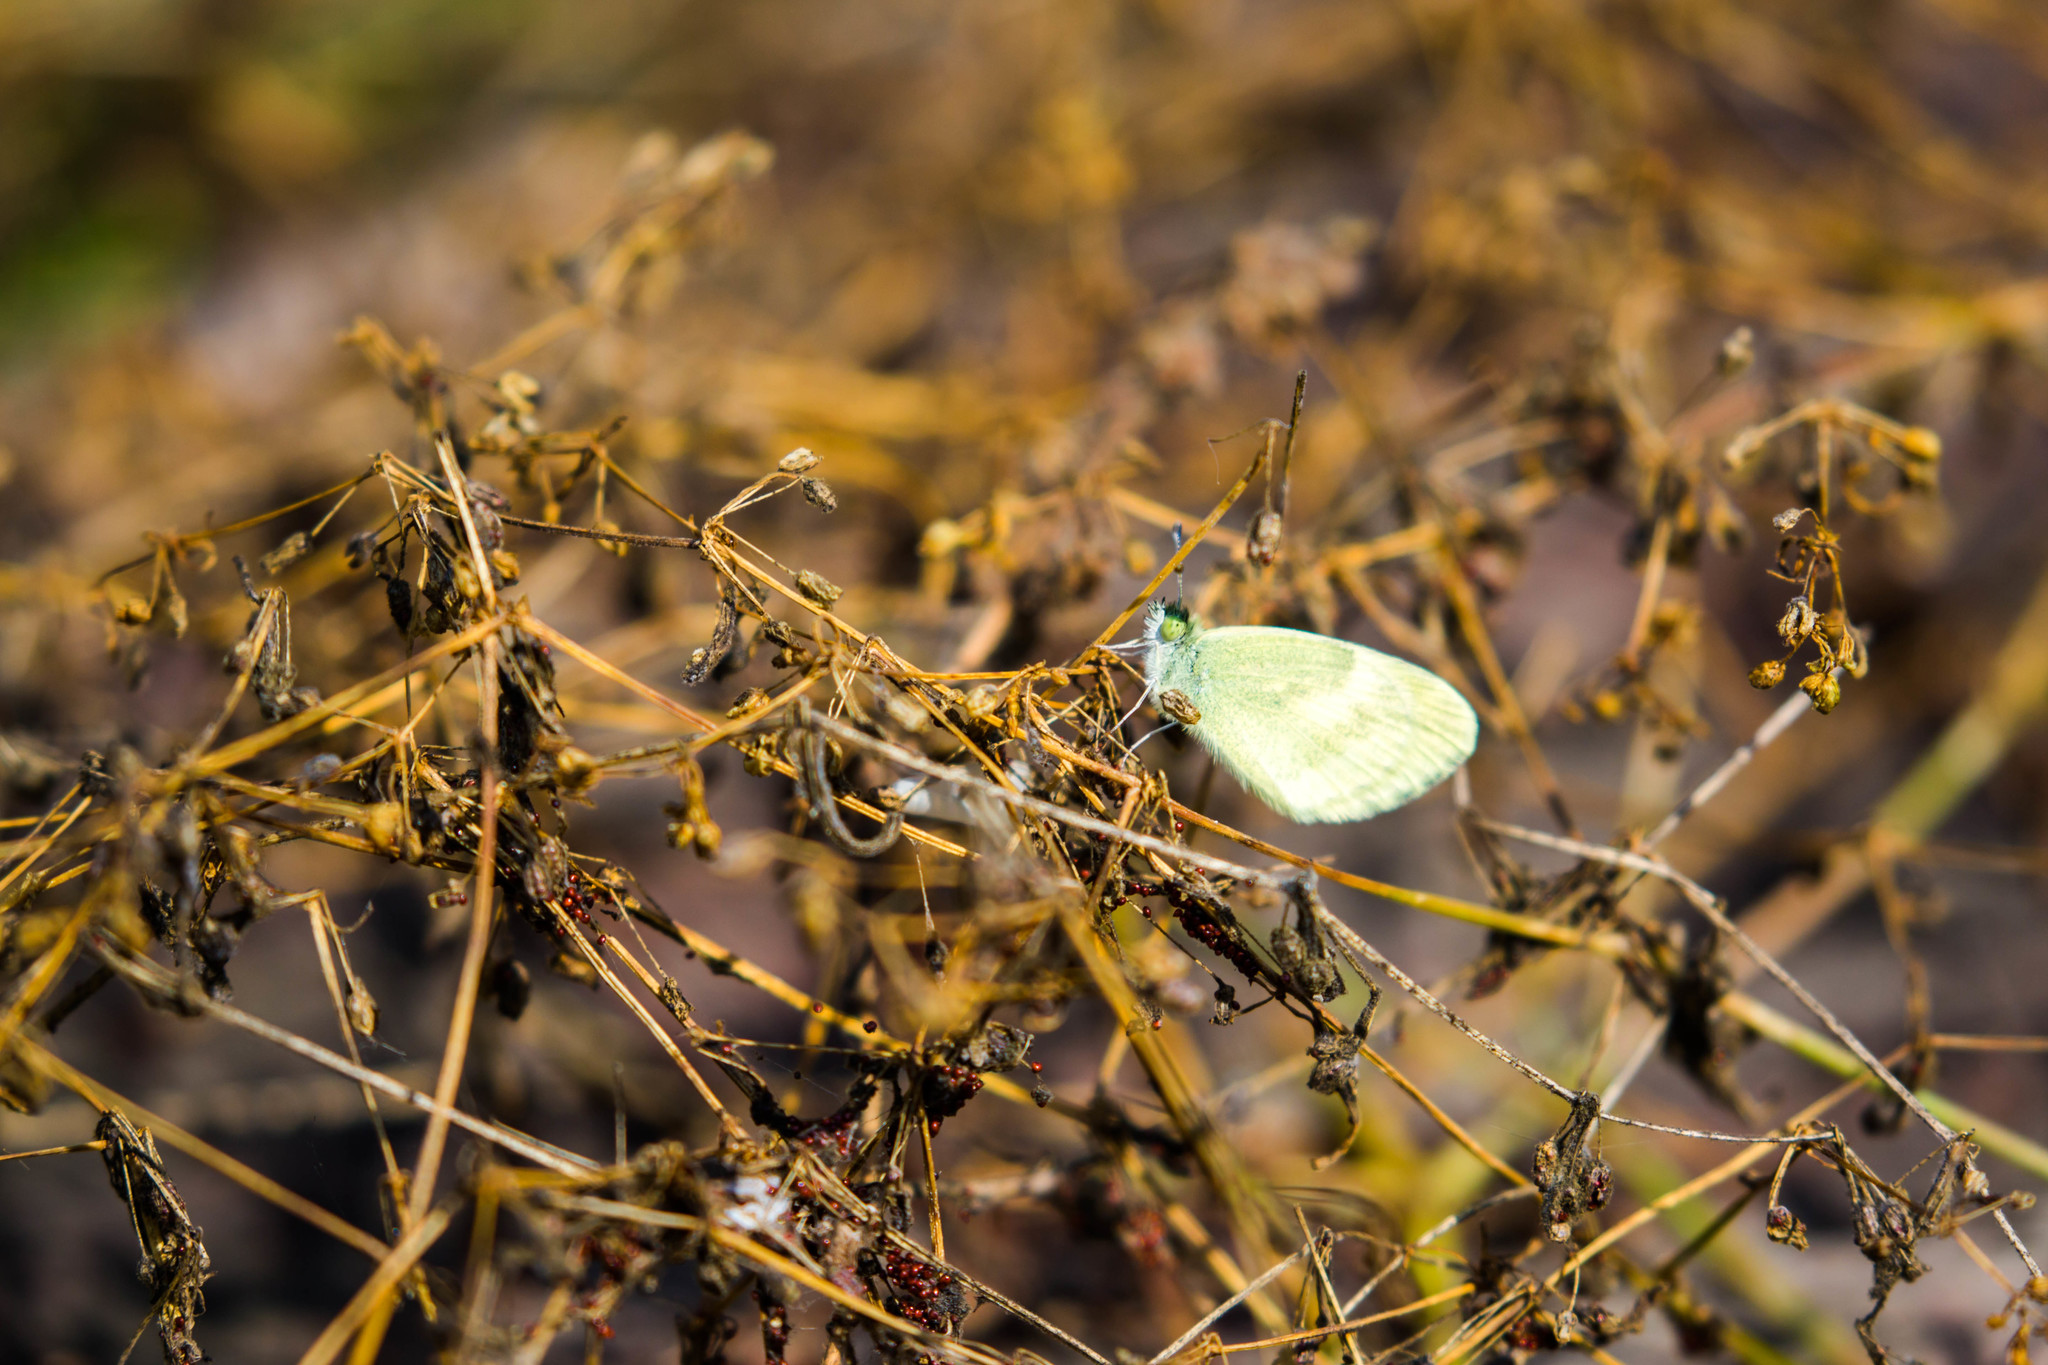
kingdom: Animalia
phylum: Arthropoda
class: Insecta
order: Lepidoptera
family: Pieridae
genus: Nathalis
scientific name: Nathalis iole
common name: Dainty sulphur
